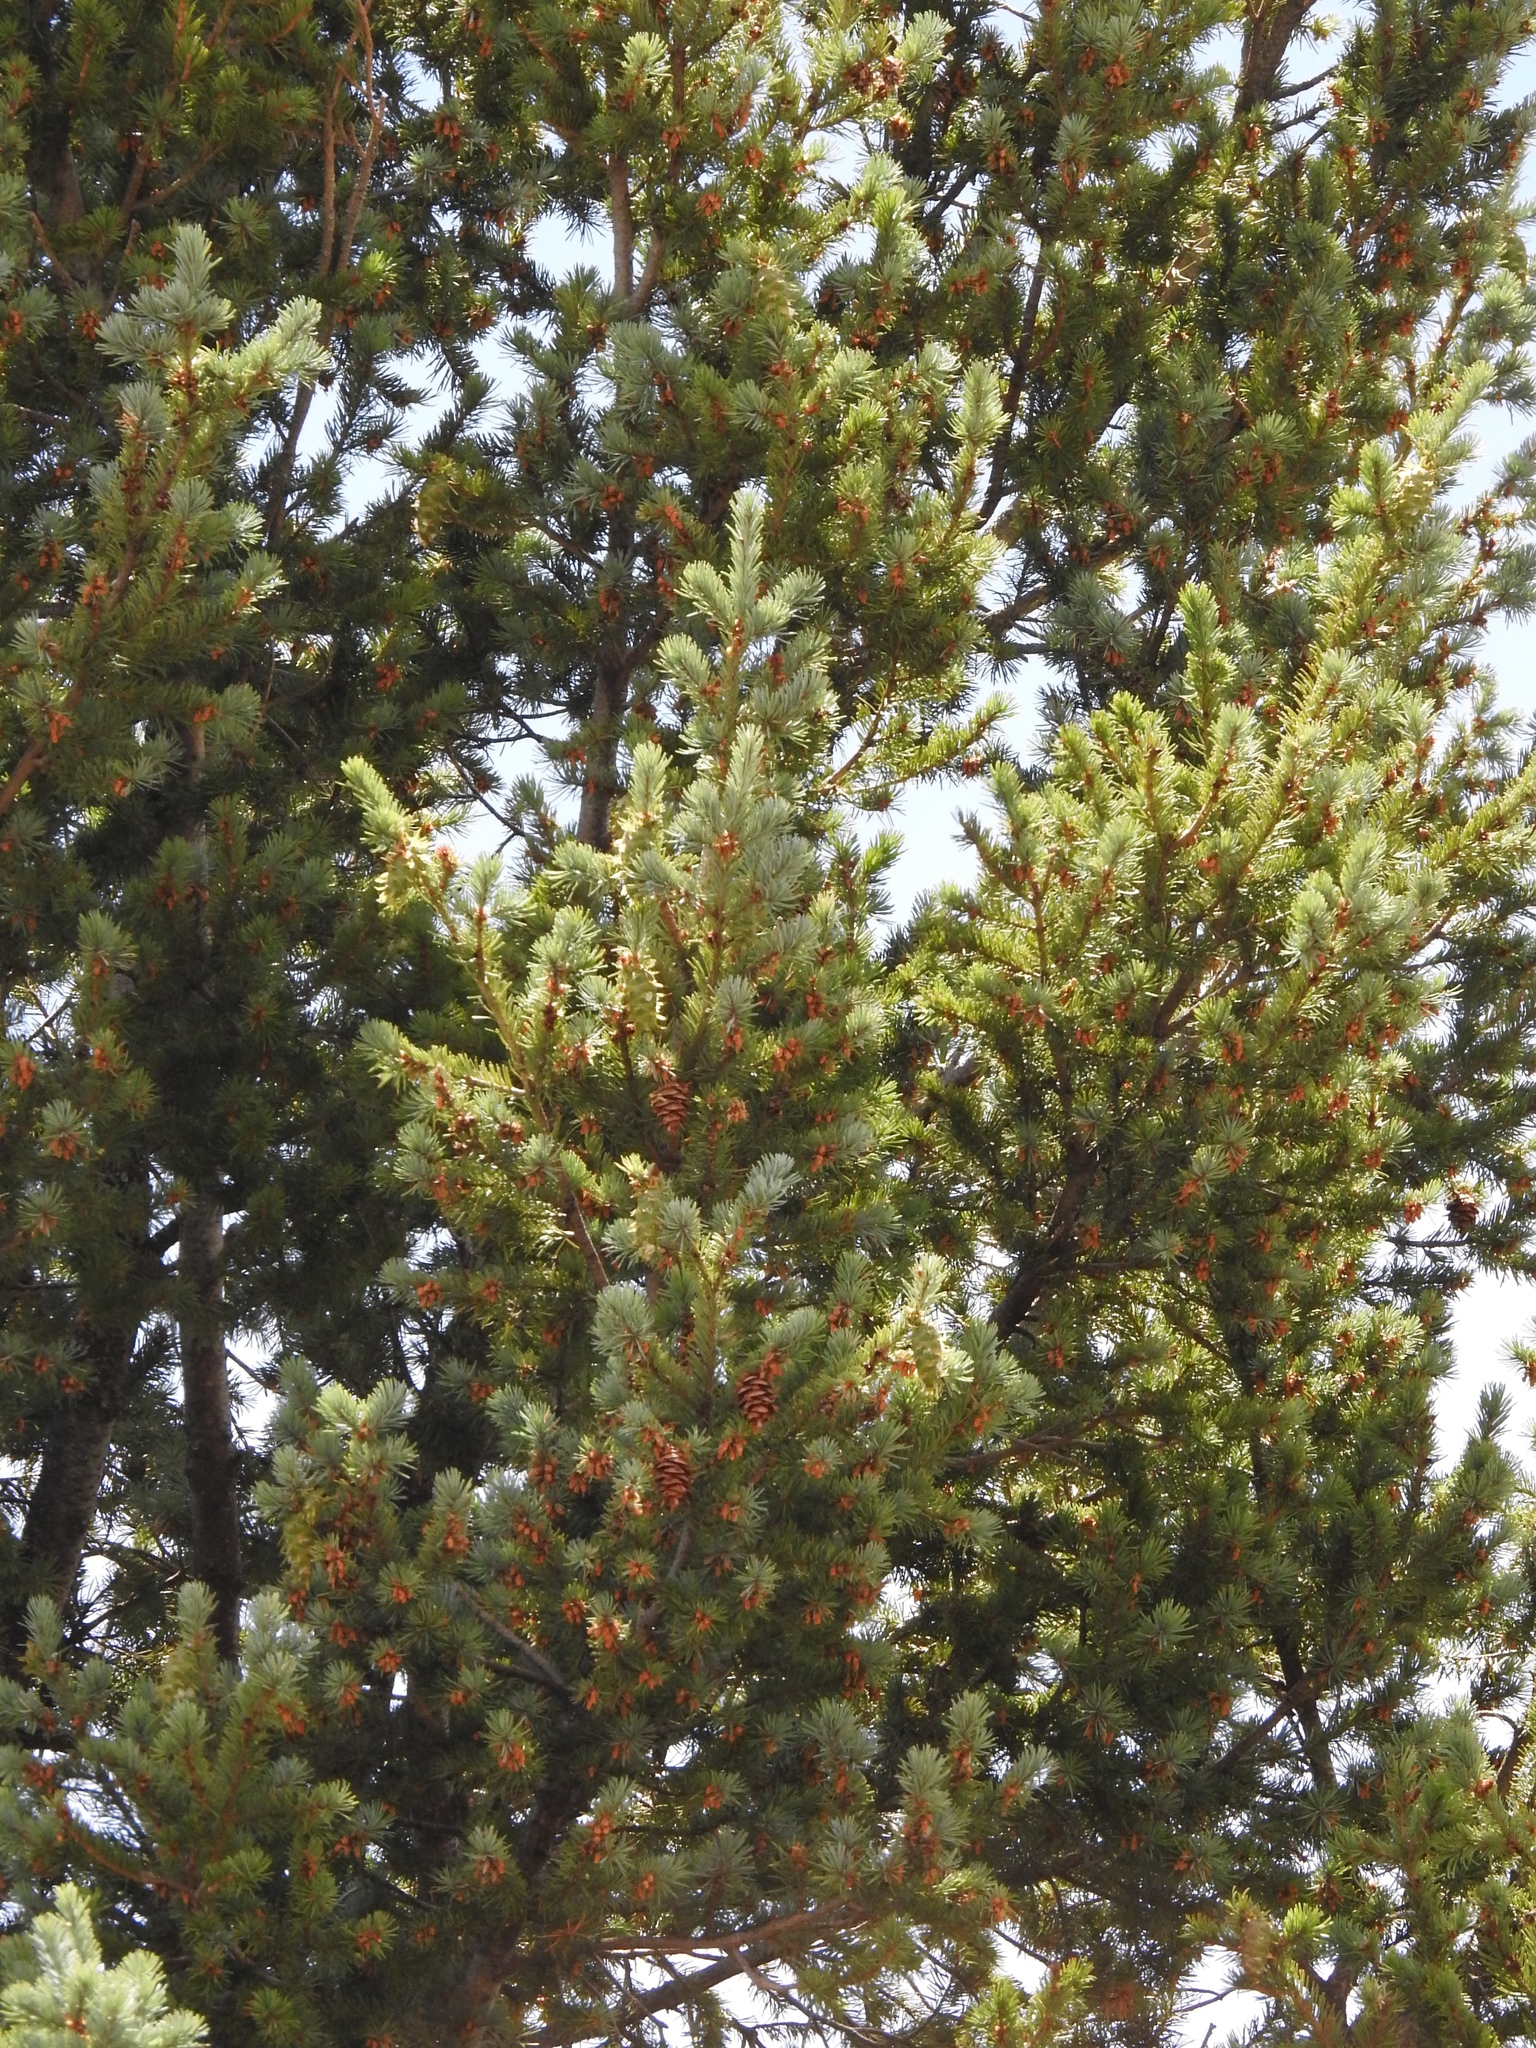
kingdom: Plantae
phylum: Tracheophyta
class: Pinopsida
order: Pinales
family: Pinaceae
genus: Pseudotsuga
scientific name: Pseudotsuga menziesii
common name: Douglas fir
